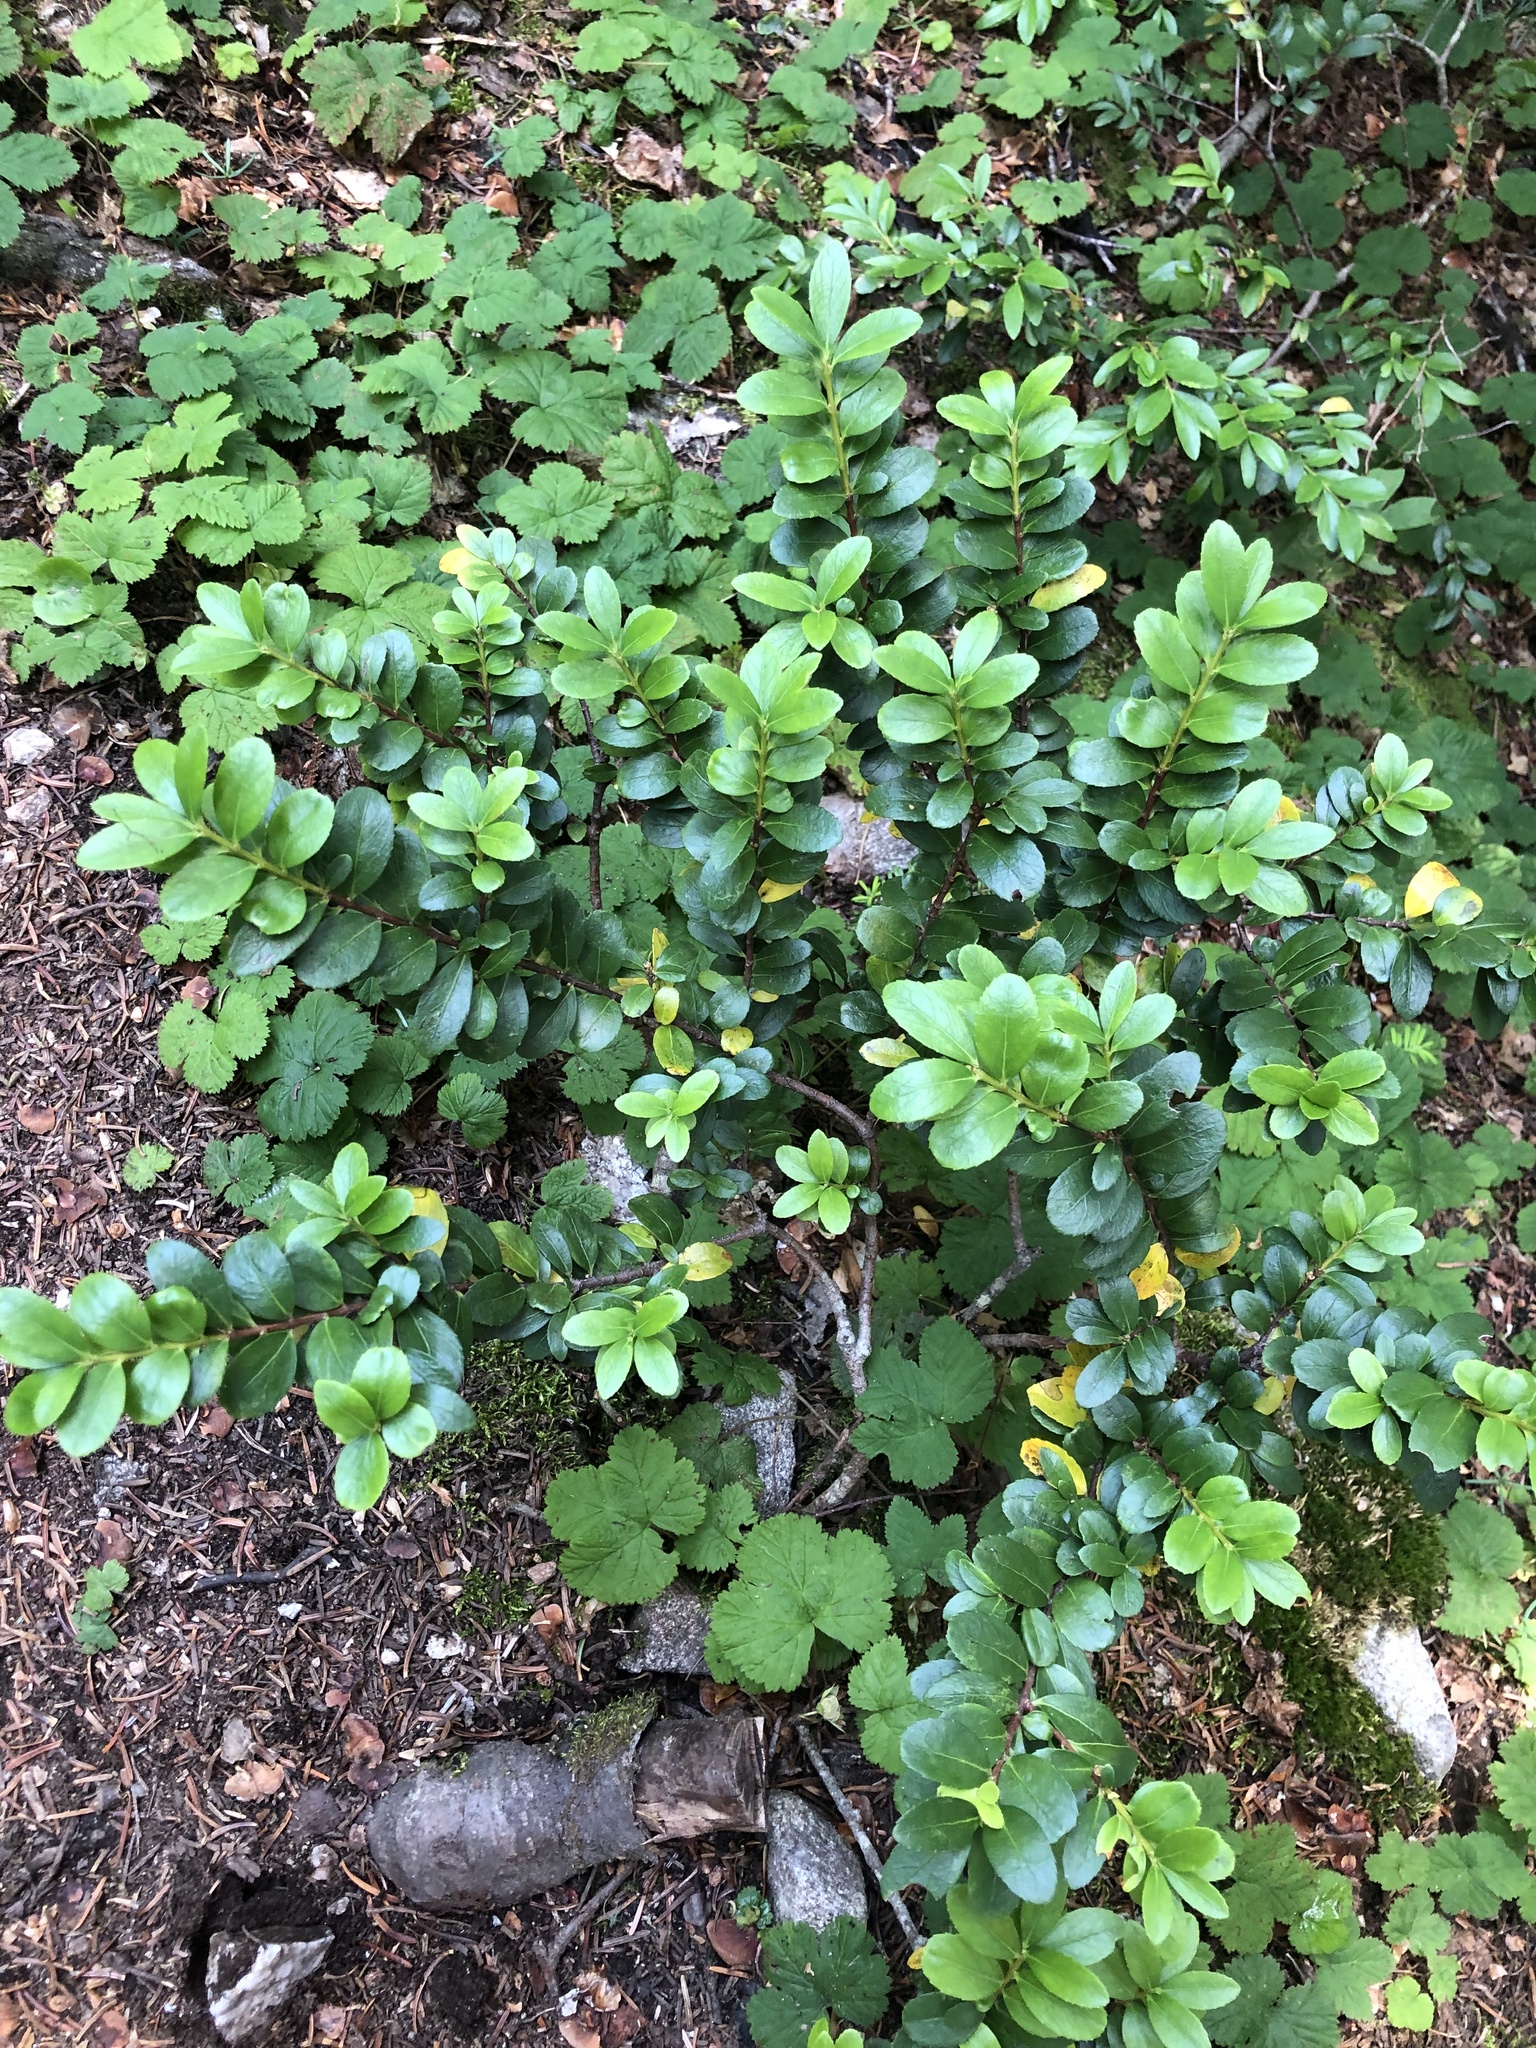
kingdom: Plantae
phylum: Tracheophyta
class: Magnoliopsida
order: Celastrales
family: Celastraceae
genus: Paxistima
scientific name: Paxistima myrsinites
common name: Mountain-lover
